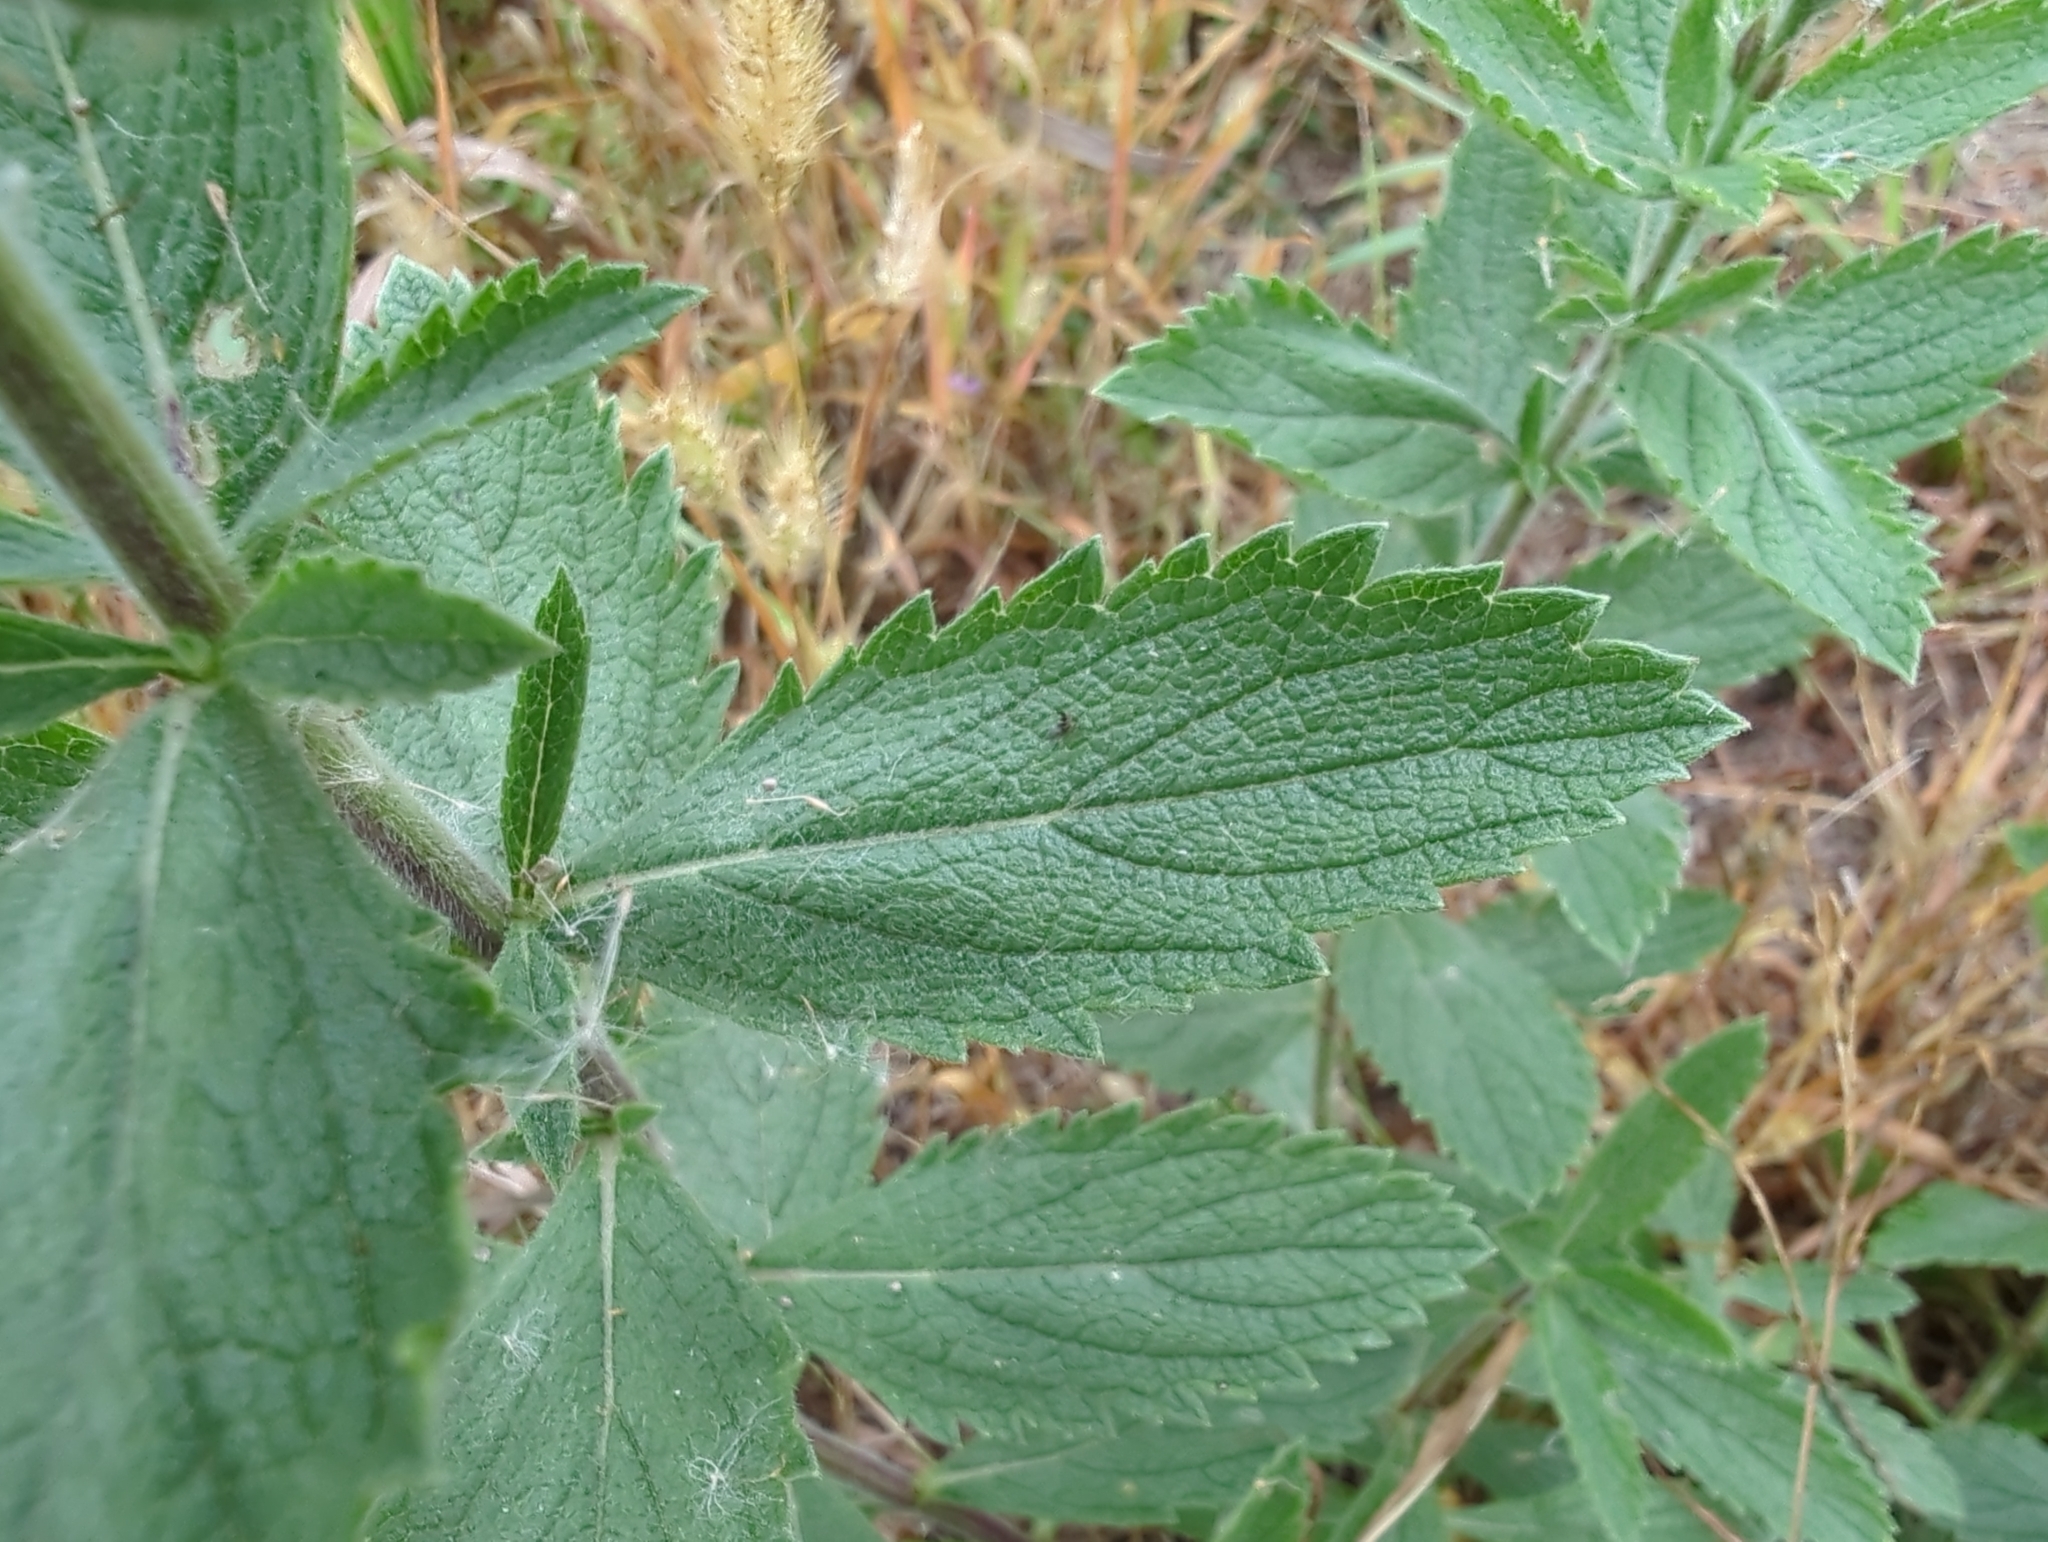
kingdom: Plantae
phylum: Tracheophyta
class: Magnoliopsida
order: Lamiales
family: Verbenaceae
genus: Verbena
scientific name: Verbena stricta
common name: Hoary vervain
